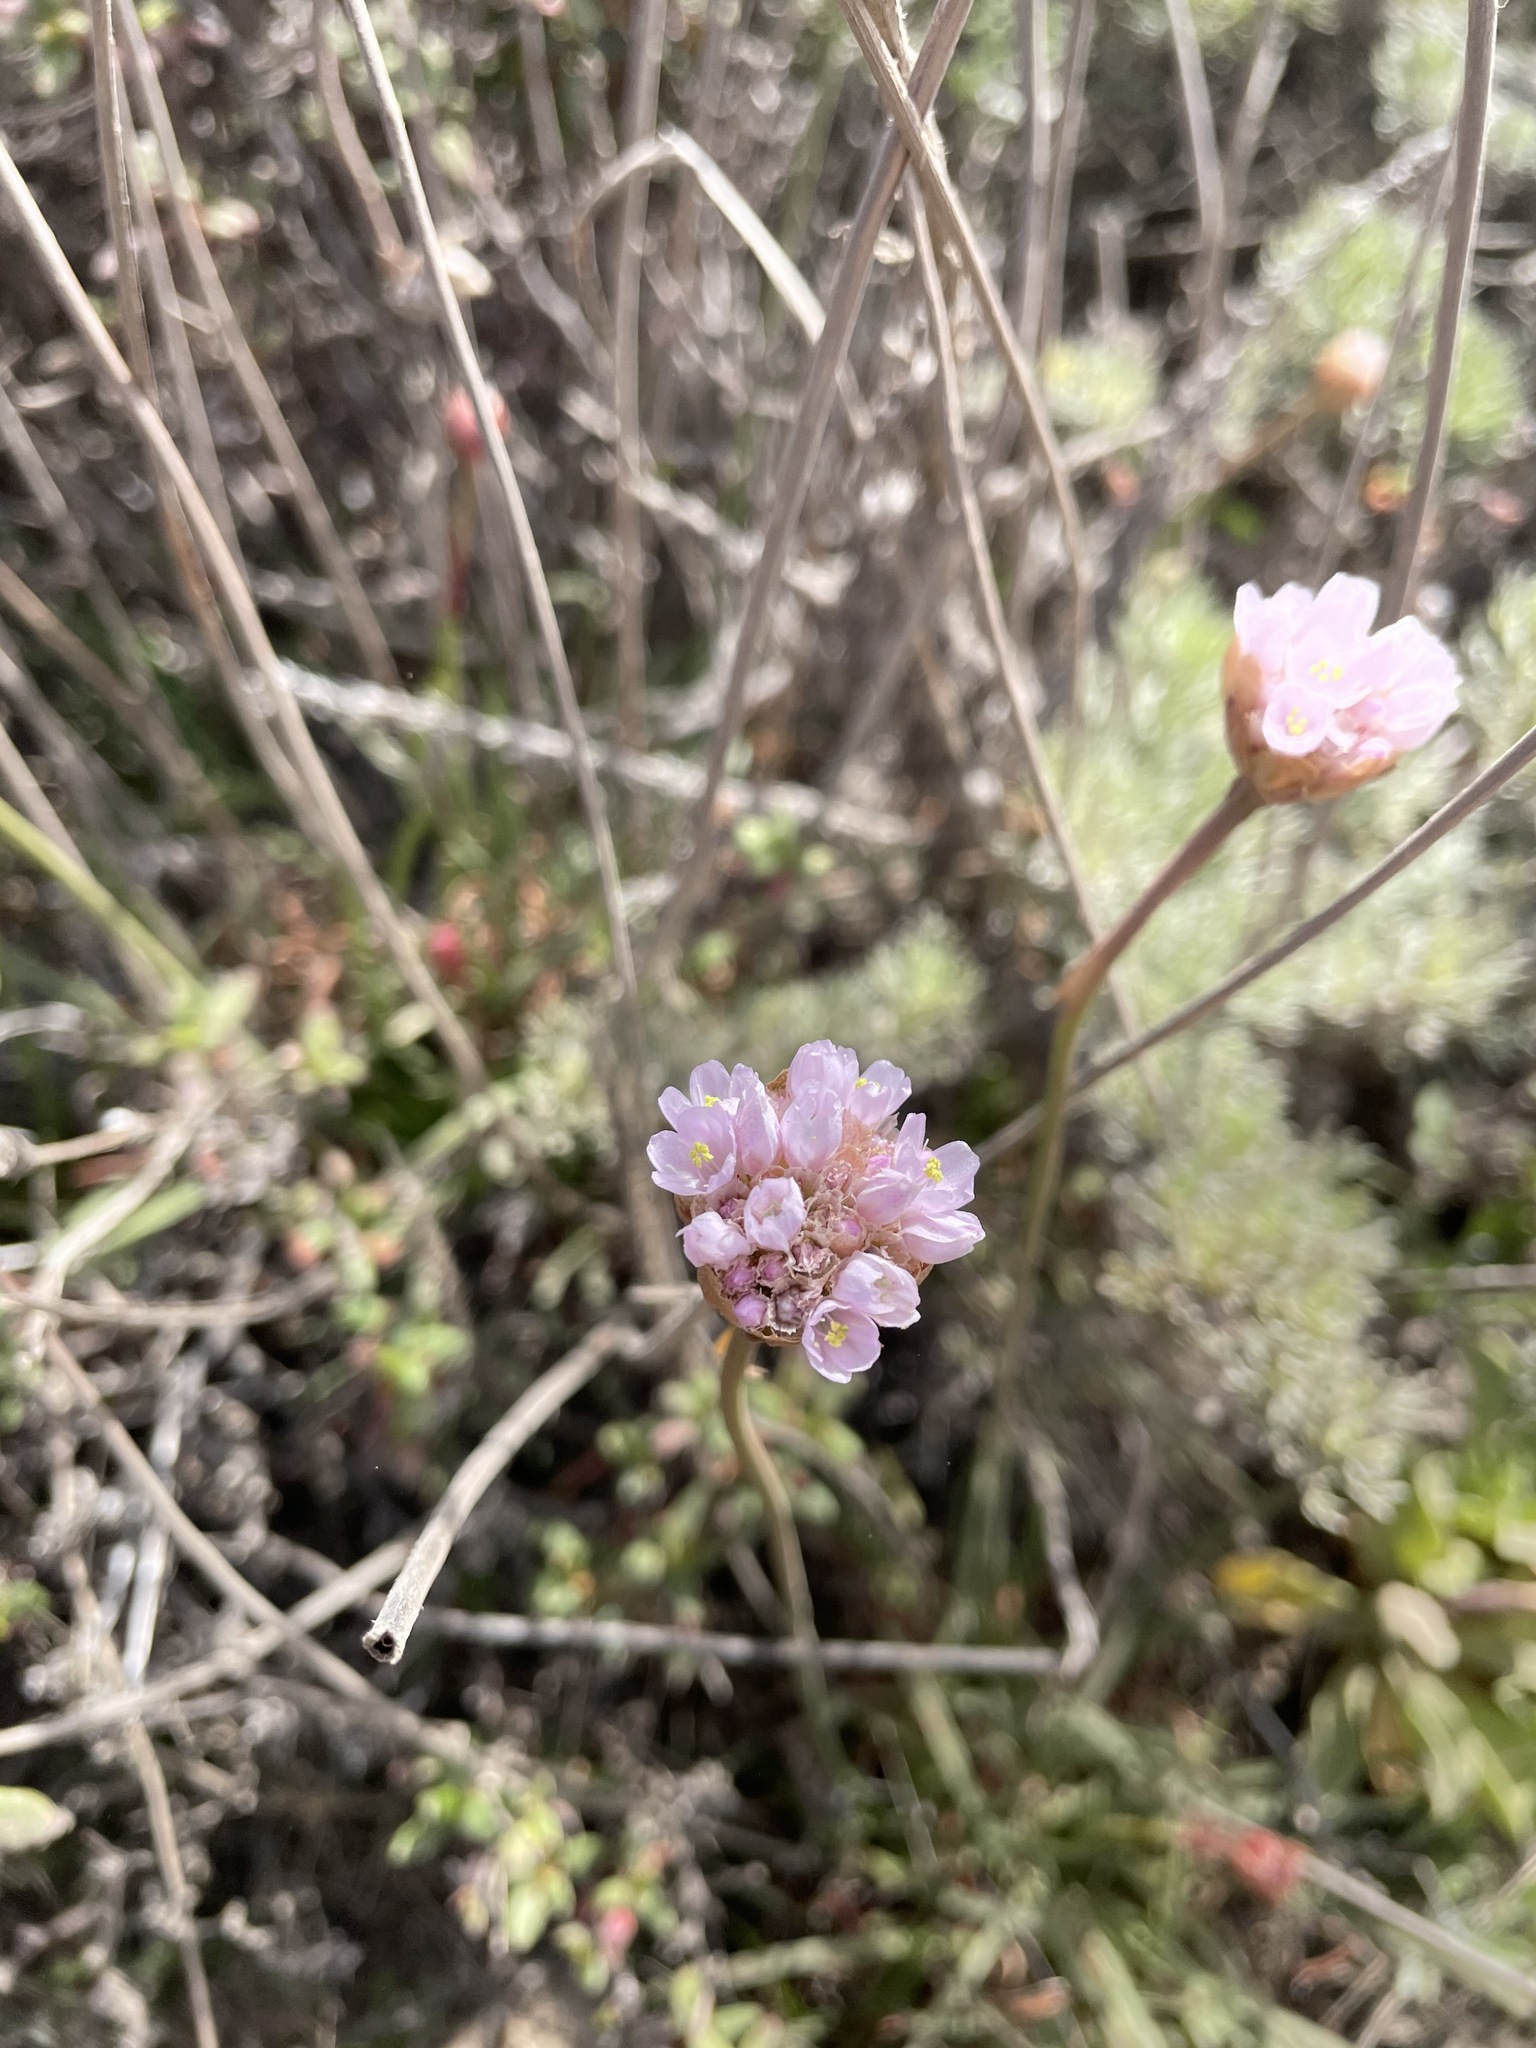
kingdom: Plantae
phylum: Tracheophyta
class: Magnoliopsida
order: Caryophyllales
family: Plumbaginaceae
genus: Armeria
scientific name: Armeria maritima
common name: Thrift
